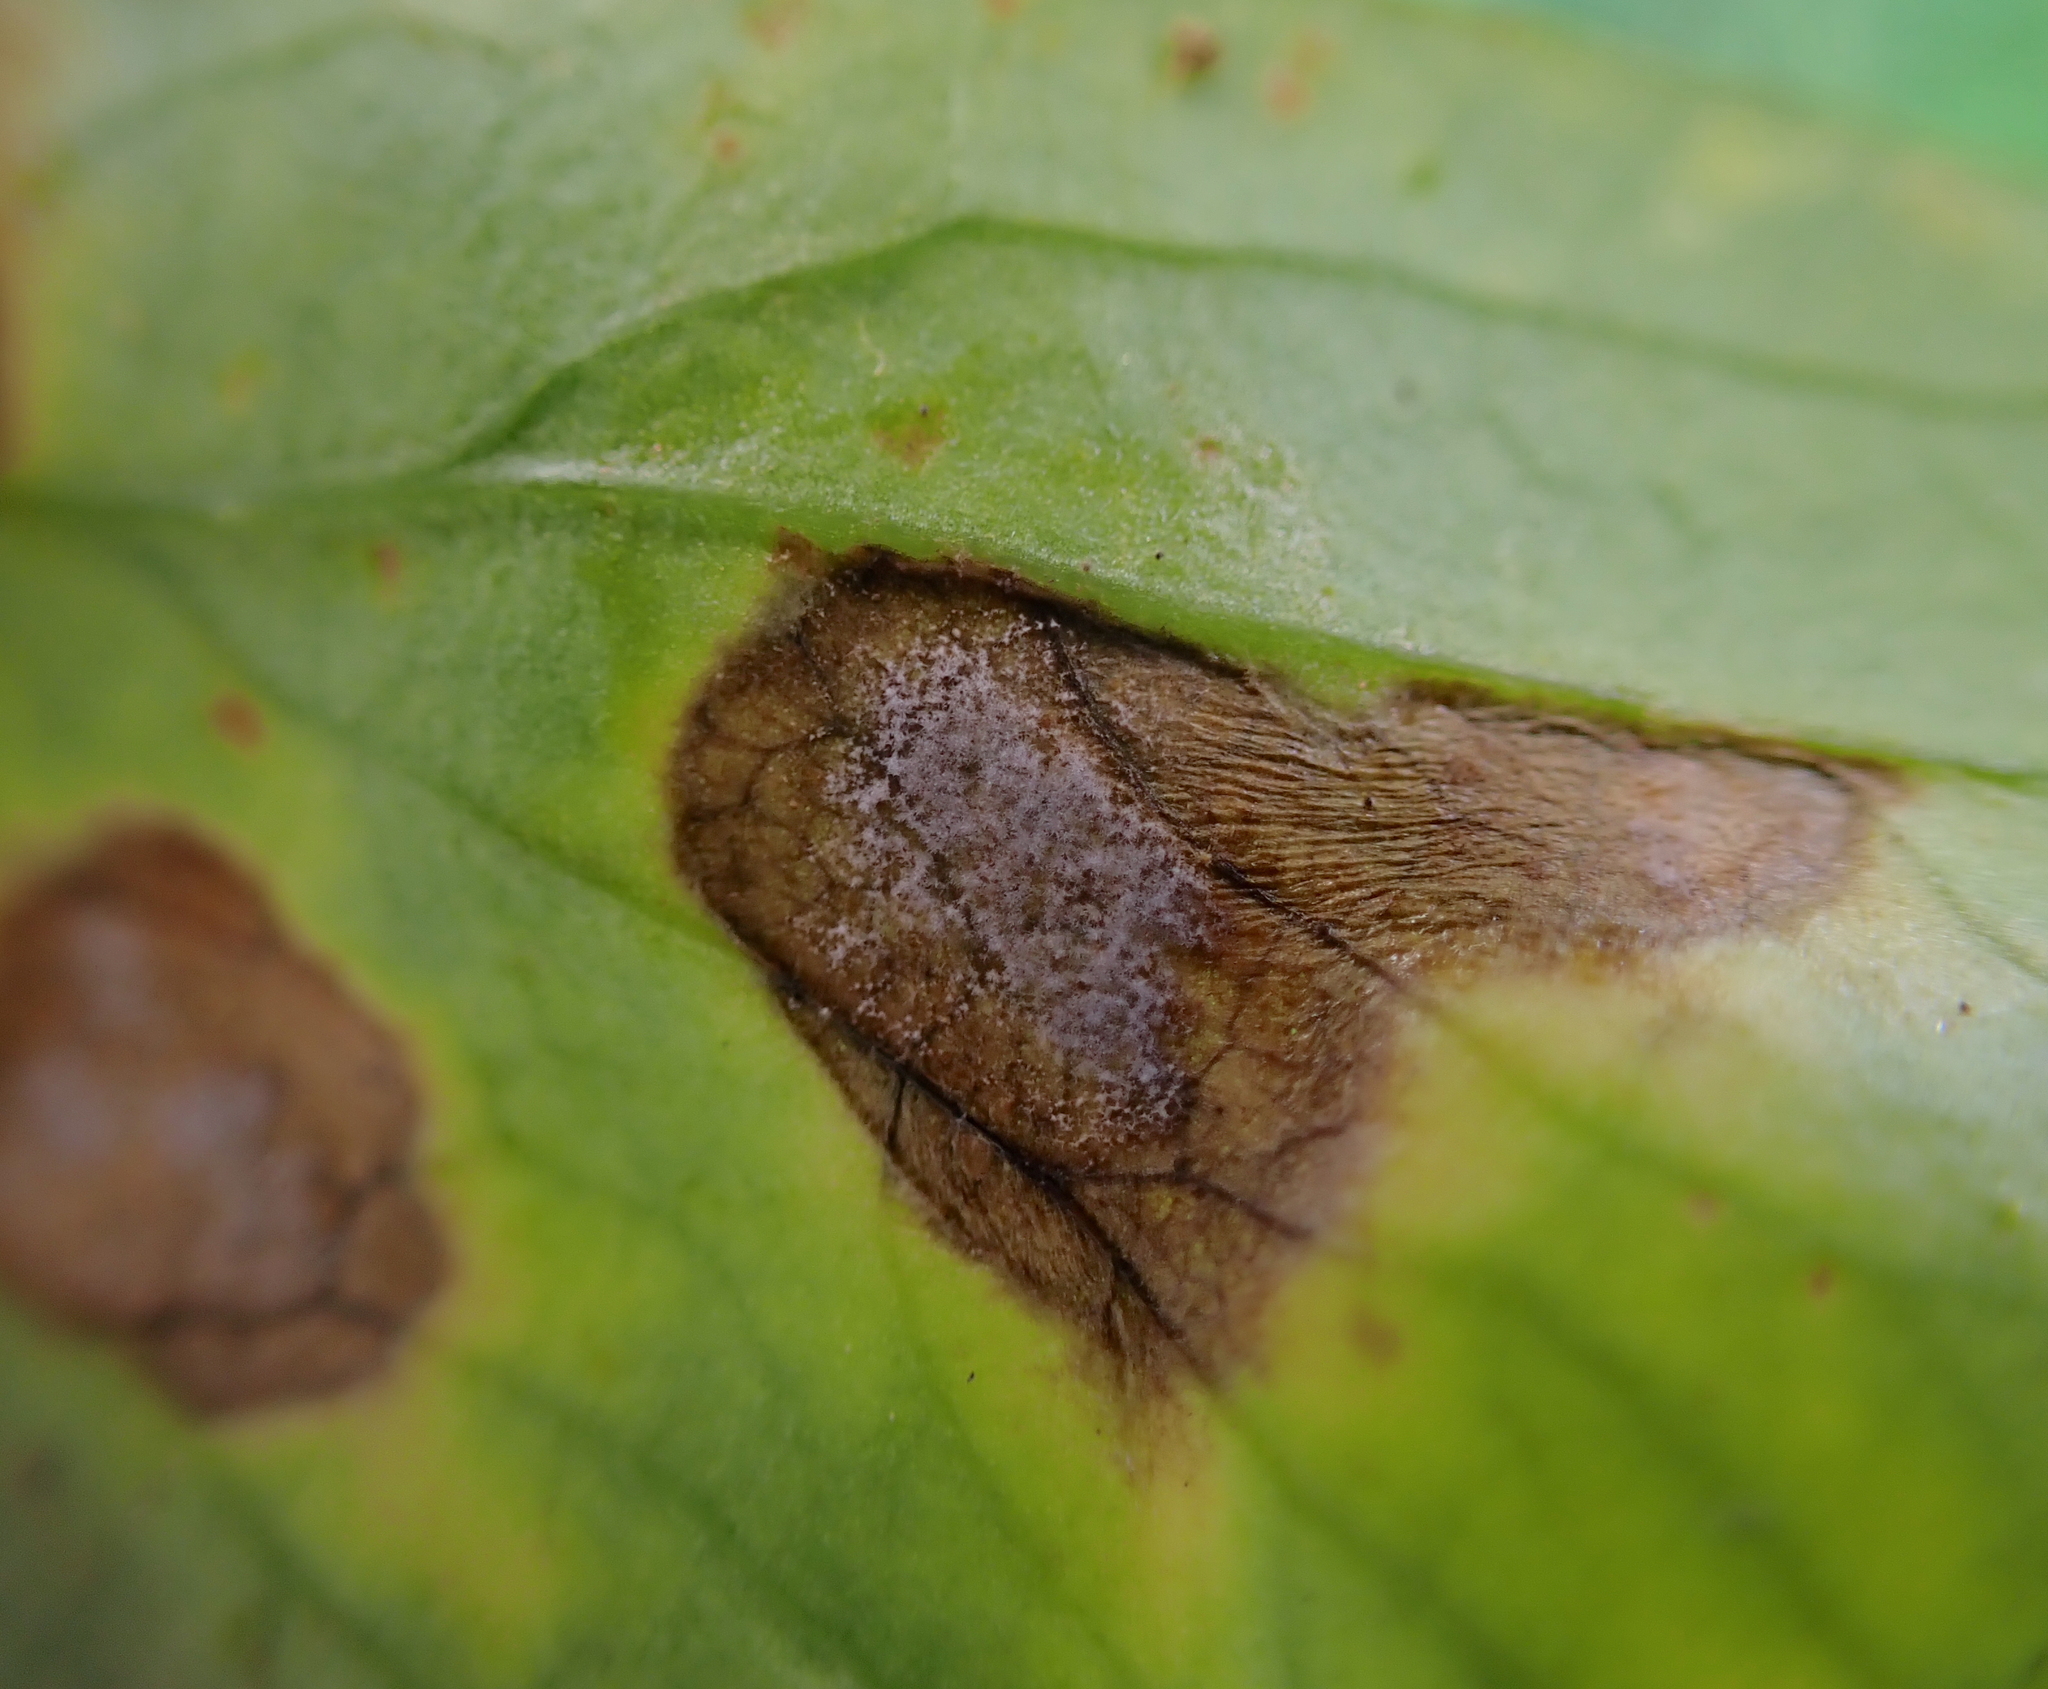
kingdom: Fungi
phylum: Ascomycota
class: Dothideomycetes
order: Mycosphaerellales
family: Mycosphaerellaceae
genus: Ramularia
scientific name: Ramularia heraclei
